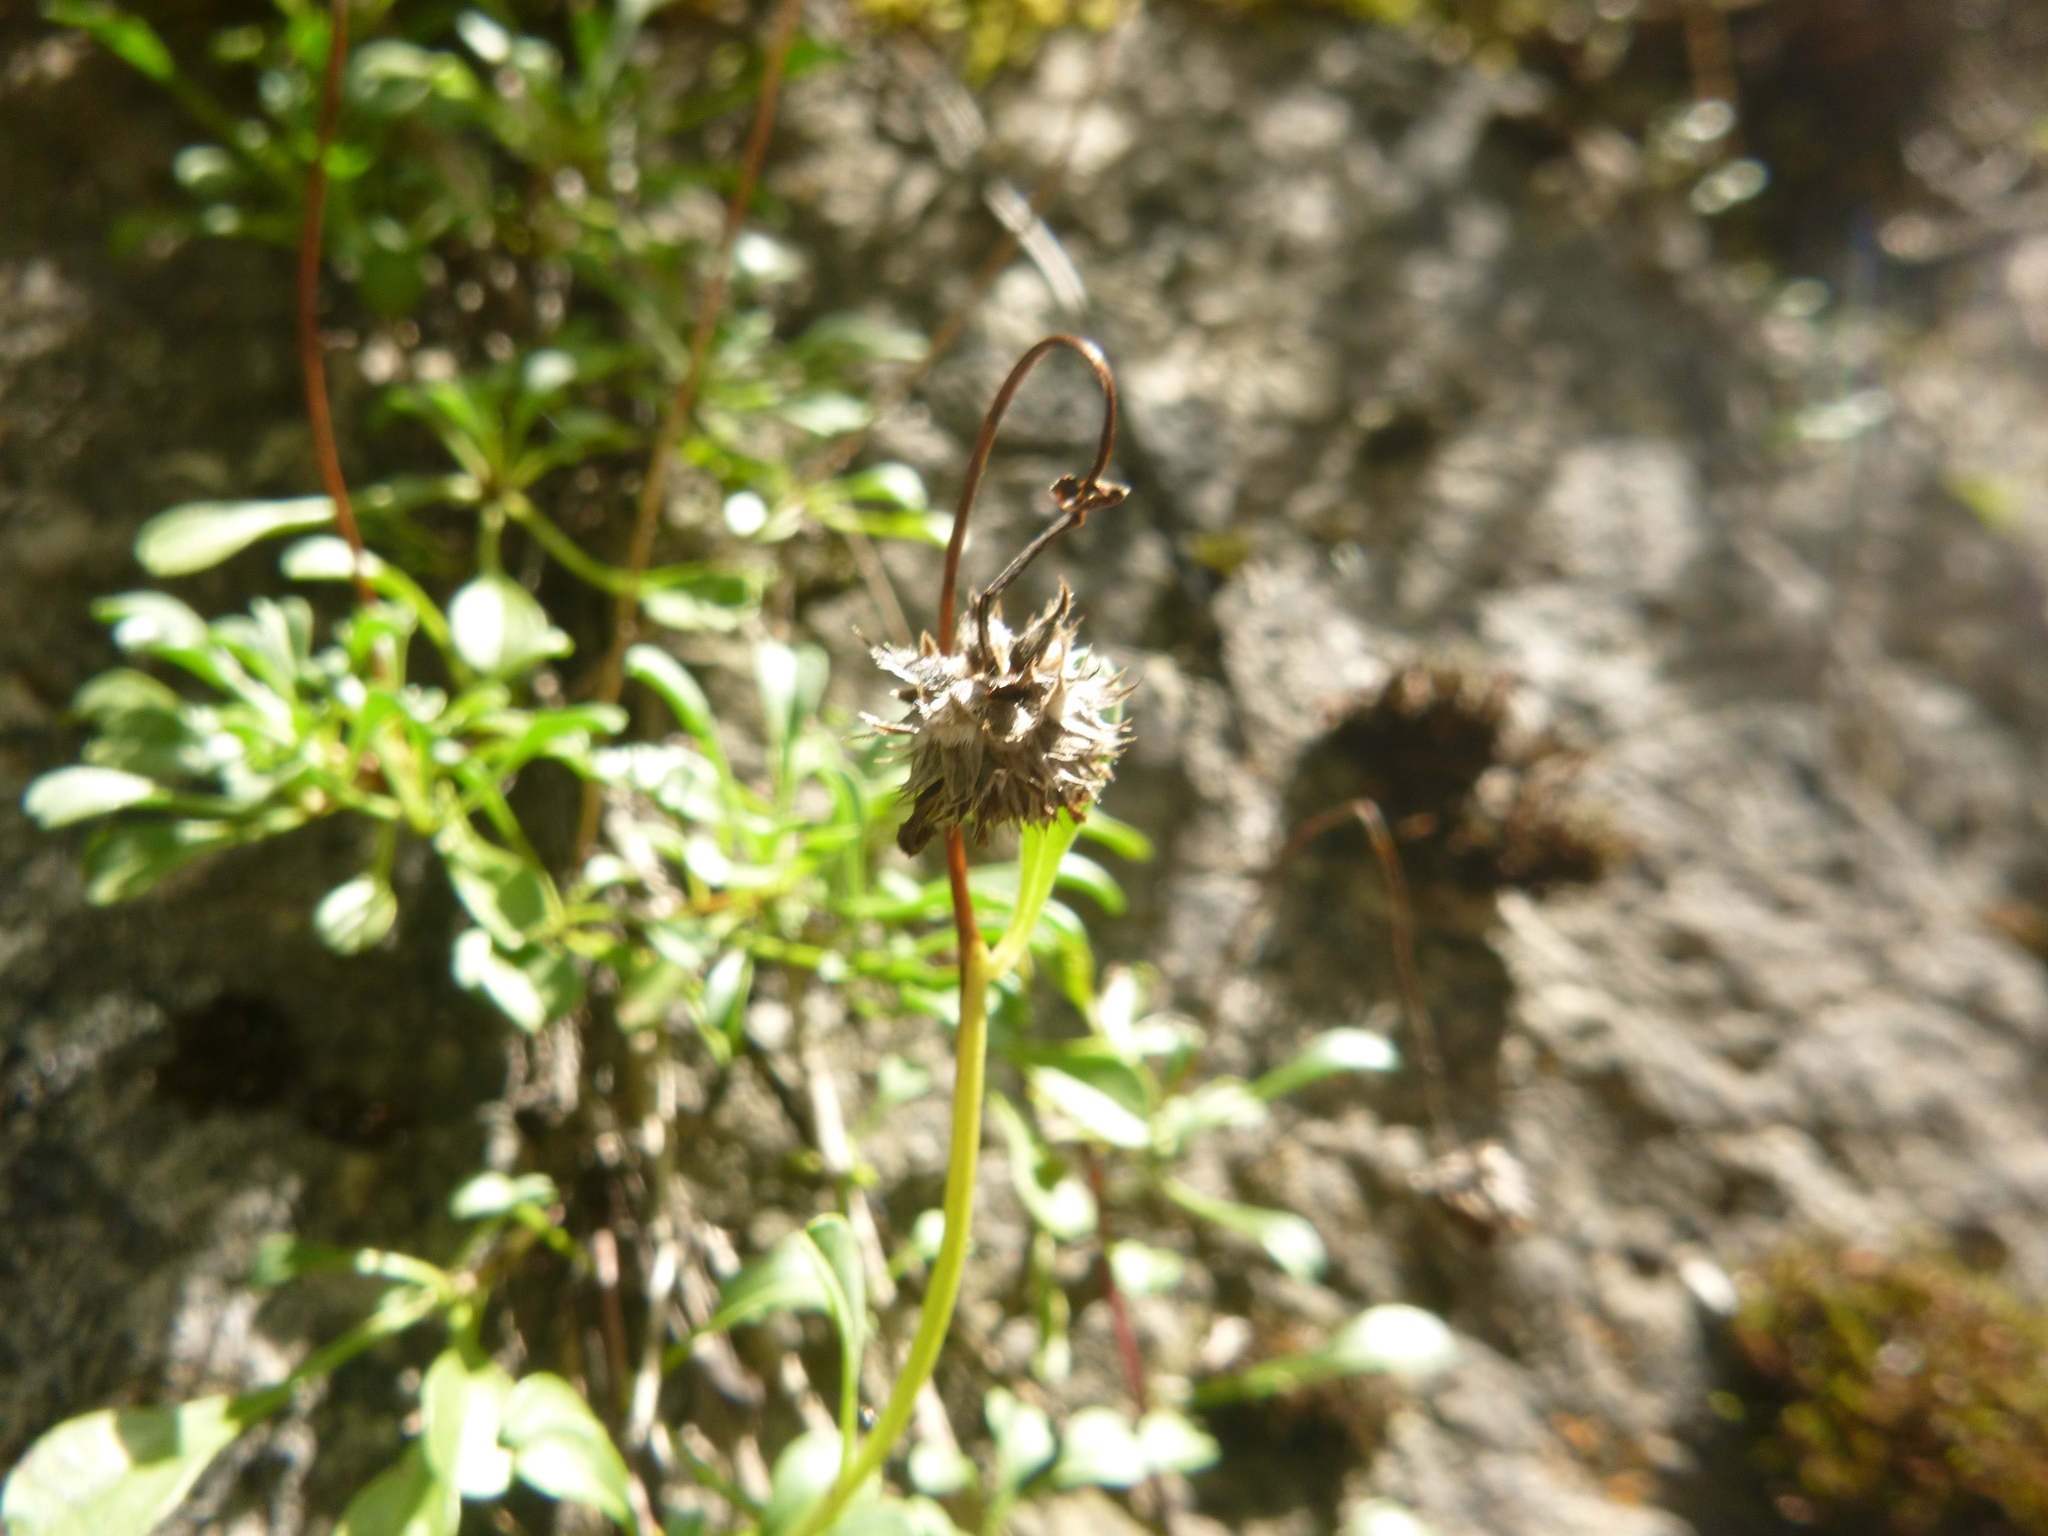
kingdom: Plantae
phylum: Tracheophyta
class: Magnoliopsida
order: Lamiales
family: Plantaginaceae
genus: Globularia
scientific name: Globularia cordifolia
